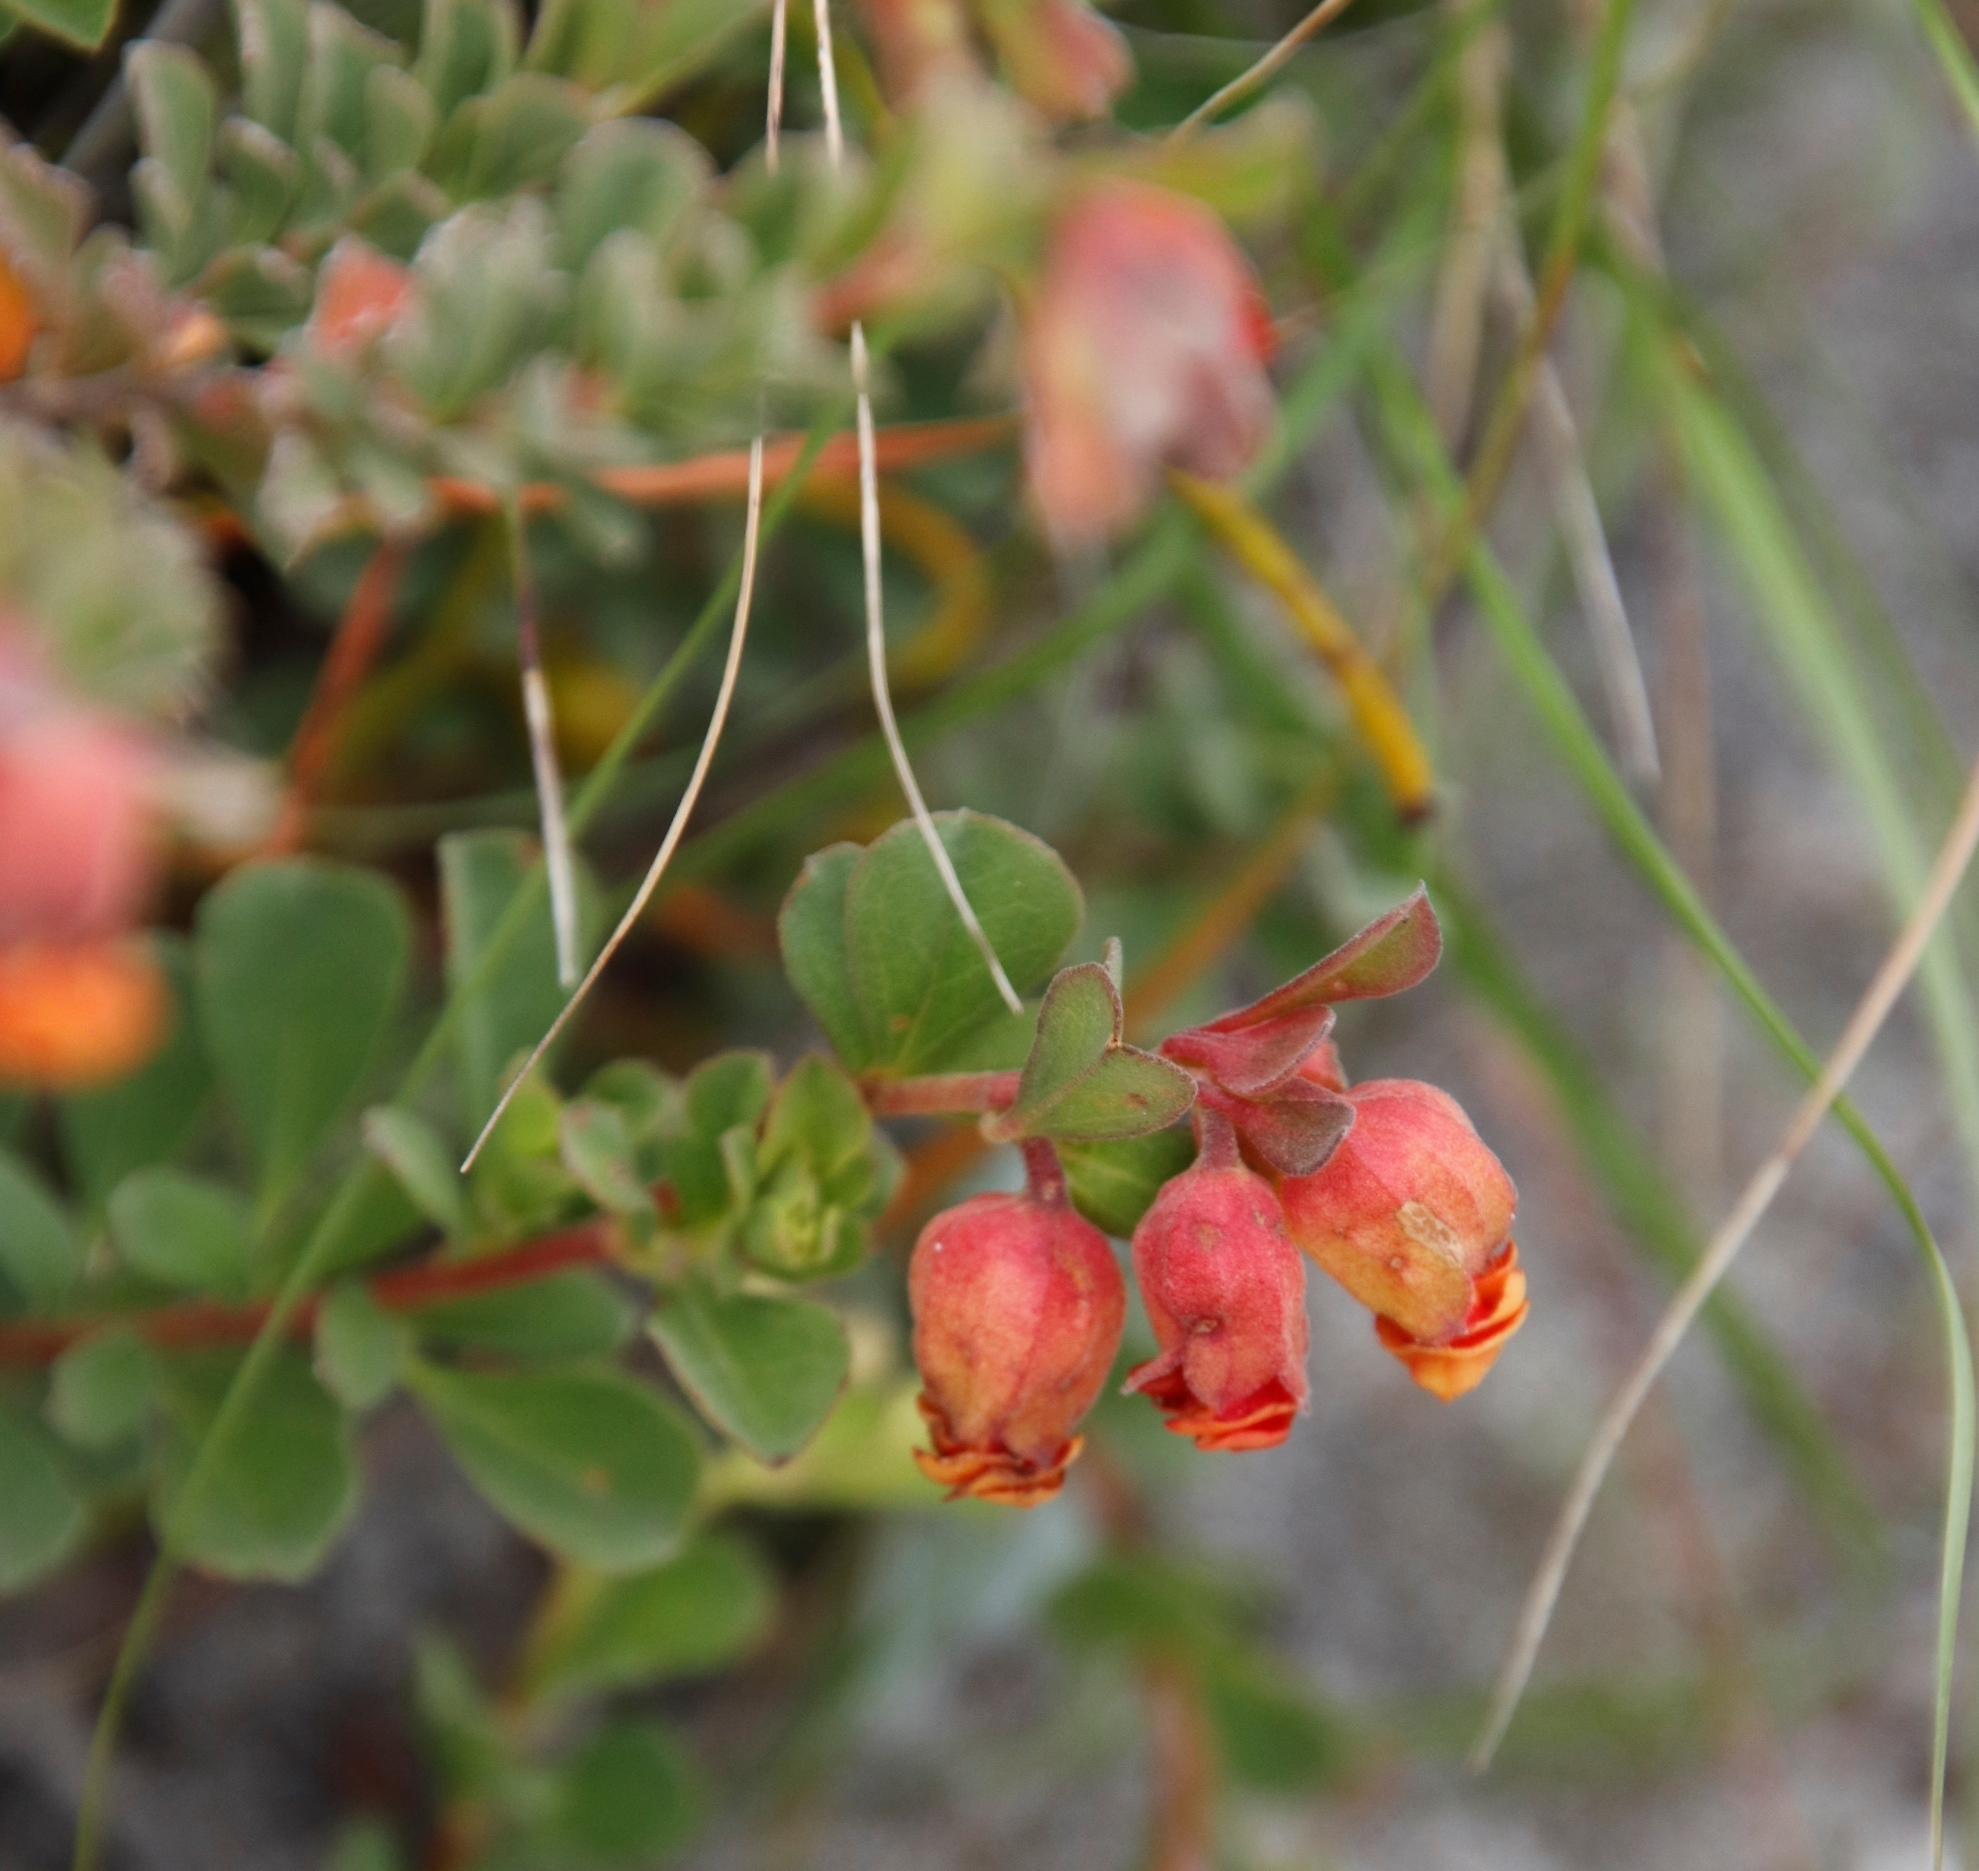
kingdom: Plantae
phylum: Tracheophyta
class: Magnoliopsida
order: Malvales
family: Malvaceae
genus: Hermannia
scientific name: Hermannia ternifolia
